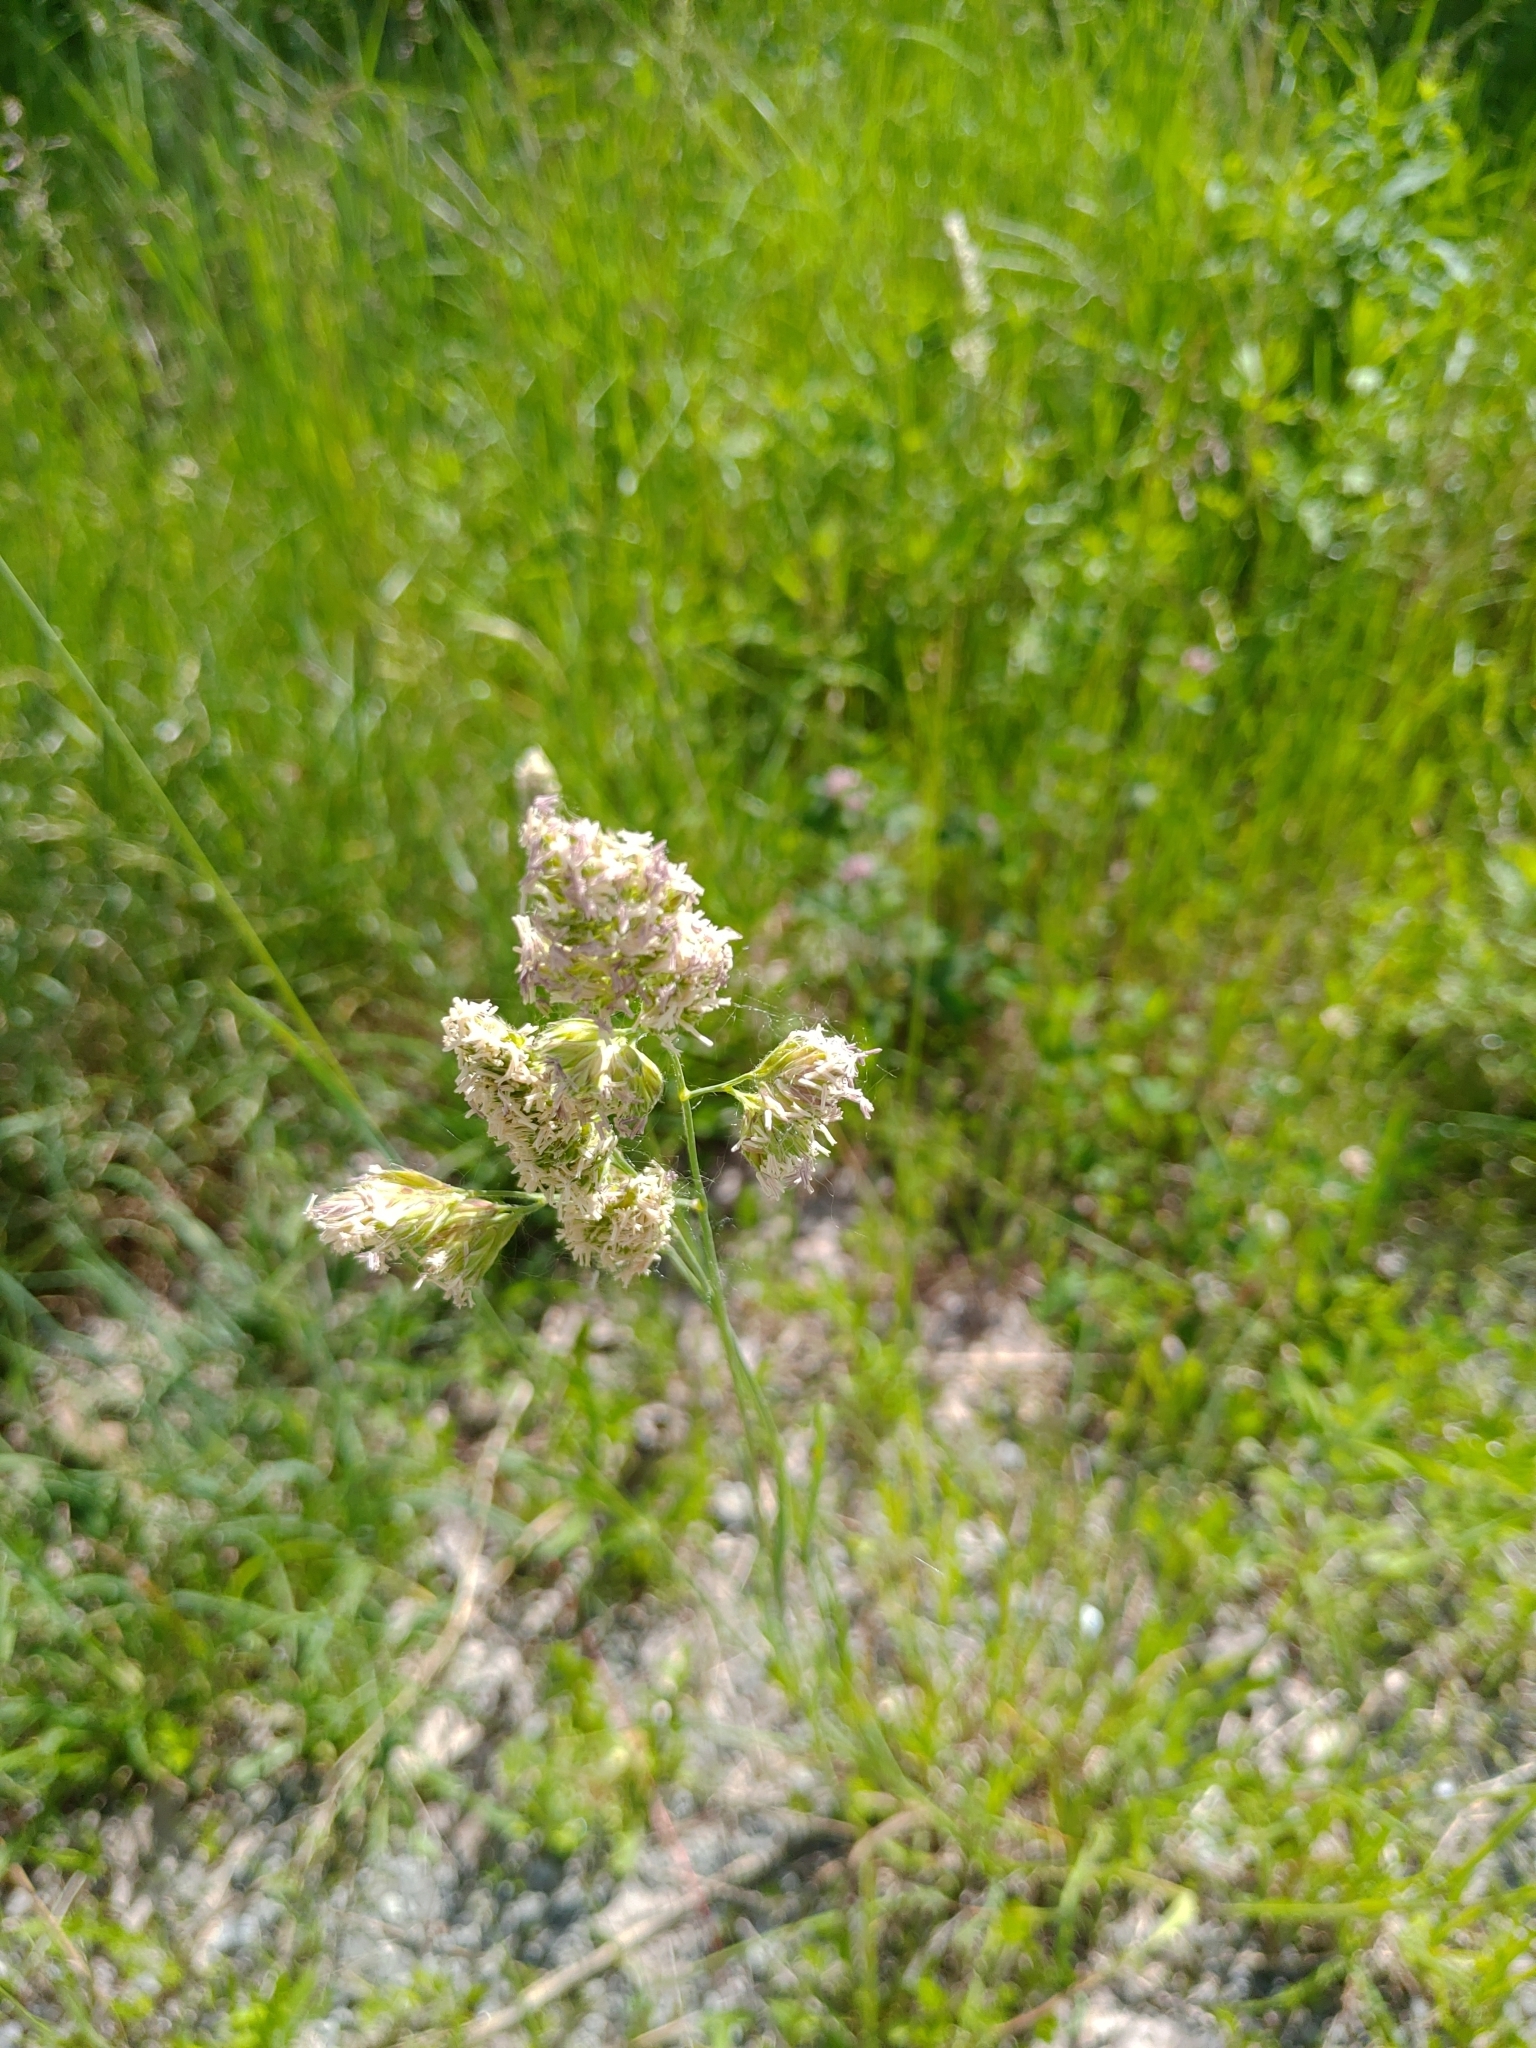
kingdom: Plantae
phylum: Tracheophyta
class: Liliopsida
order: Poales
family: Poaceae
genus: Dactylis
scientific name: Dactylis glomerata
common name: Orchardgrass
